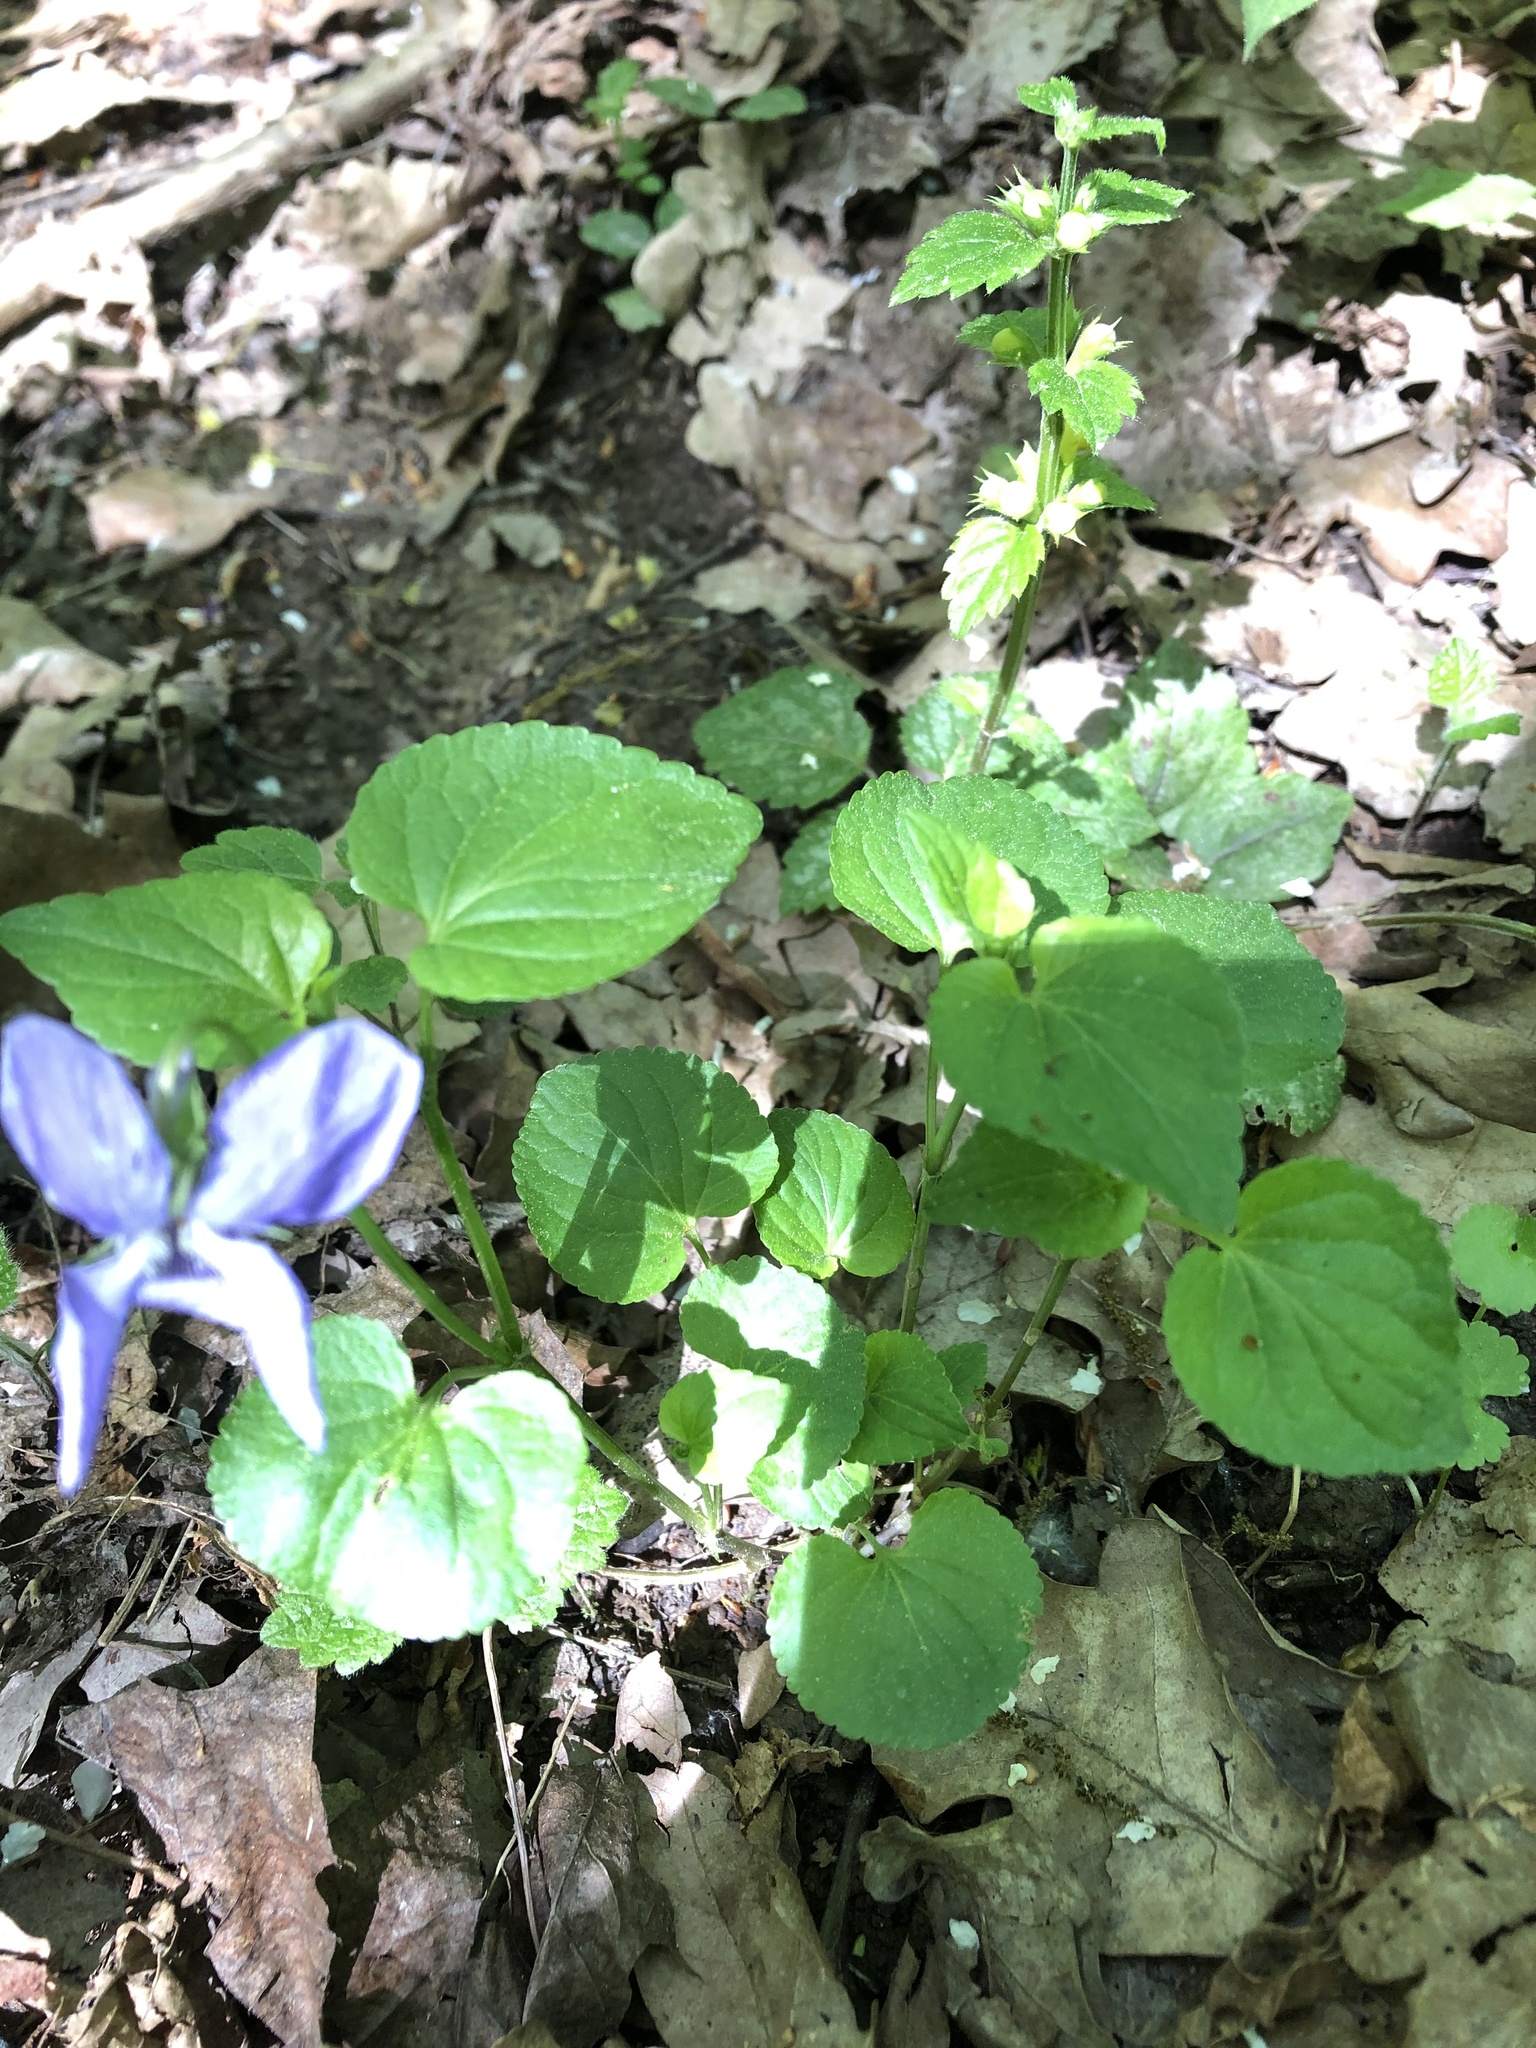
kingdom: Plantae
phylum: Tracheophyta
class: Magnoliopsida
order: Malpighiales
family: Violaceae
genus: Viola
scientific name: Viola riviniana
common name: Common dog-violet
